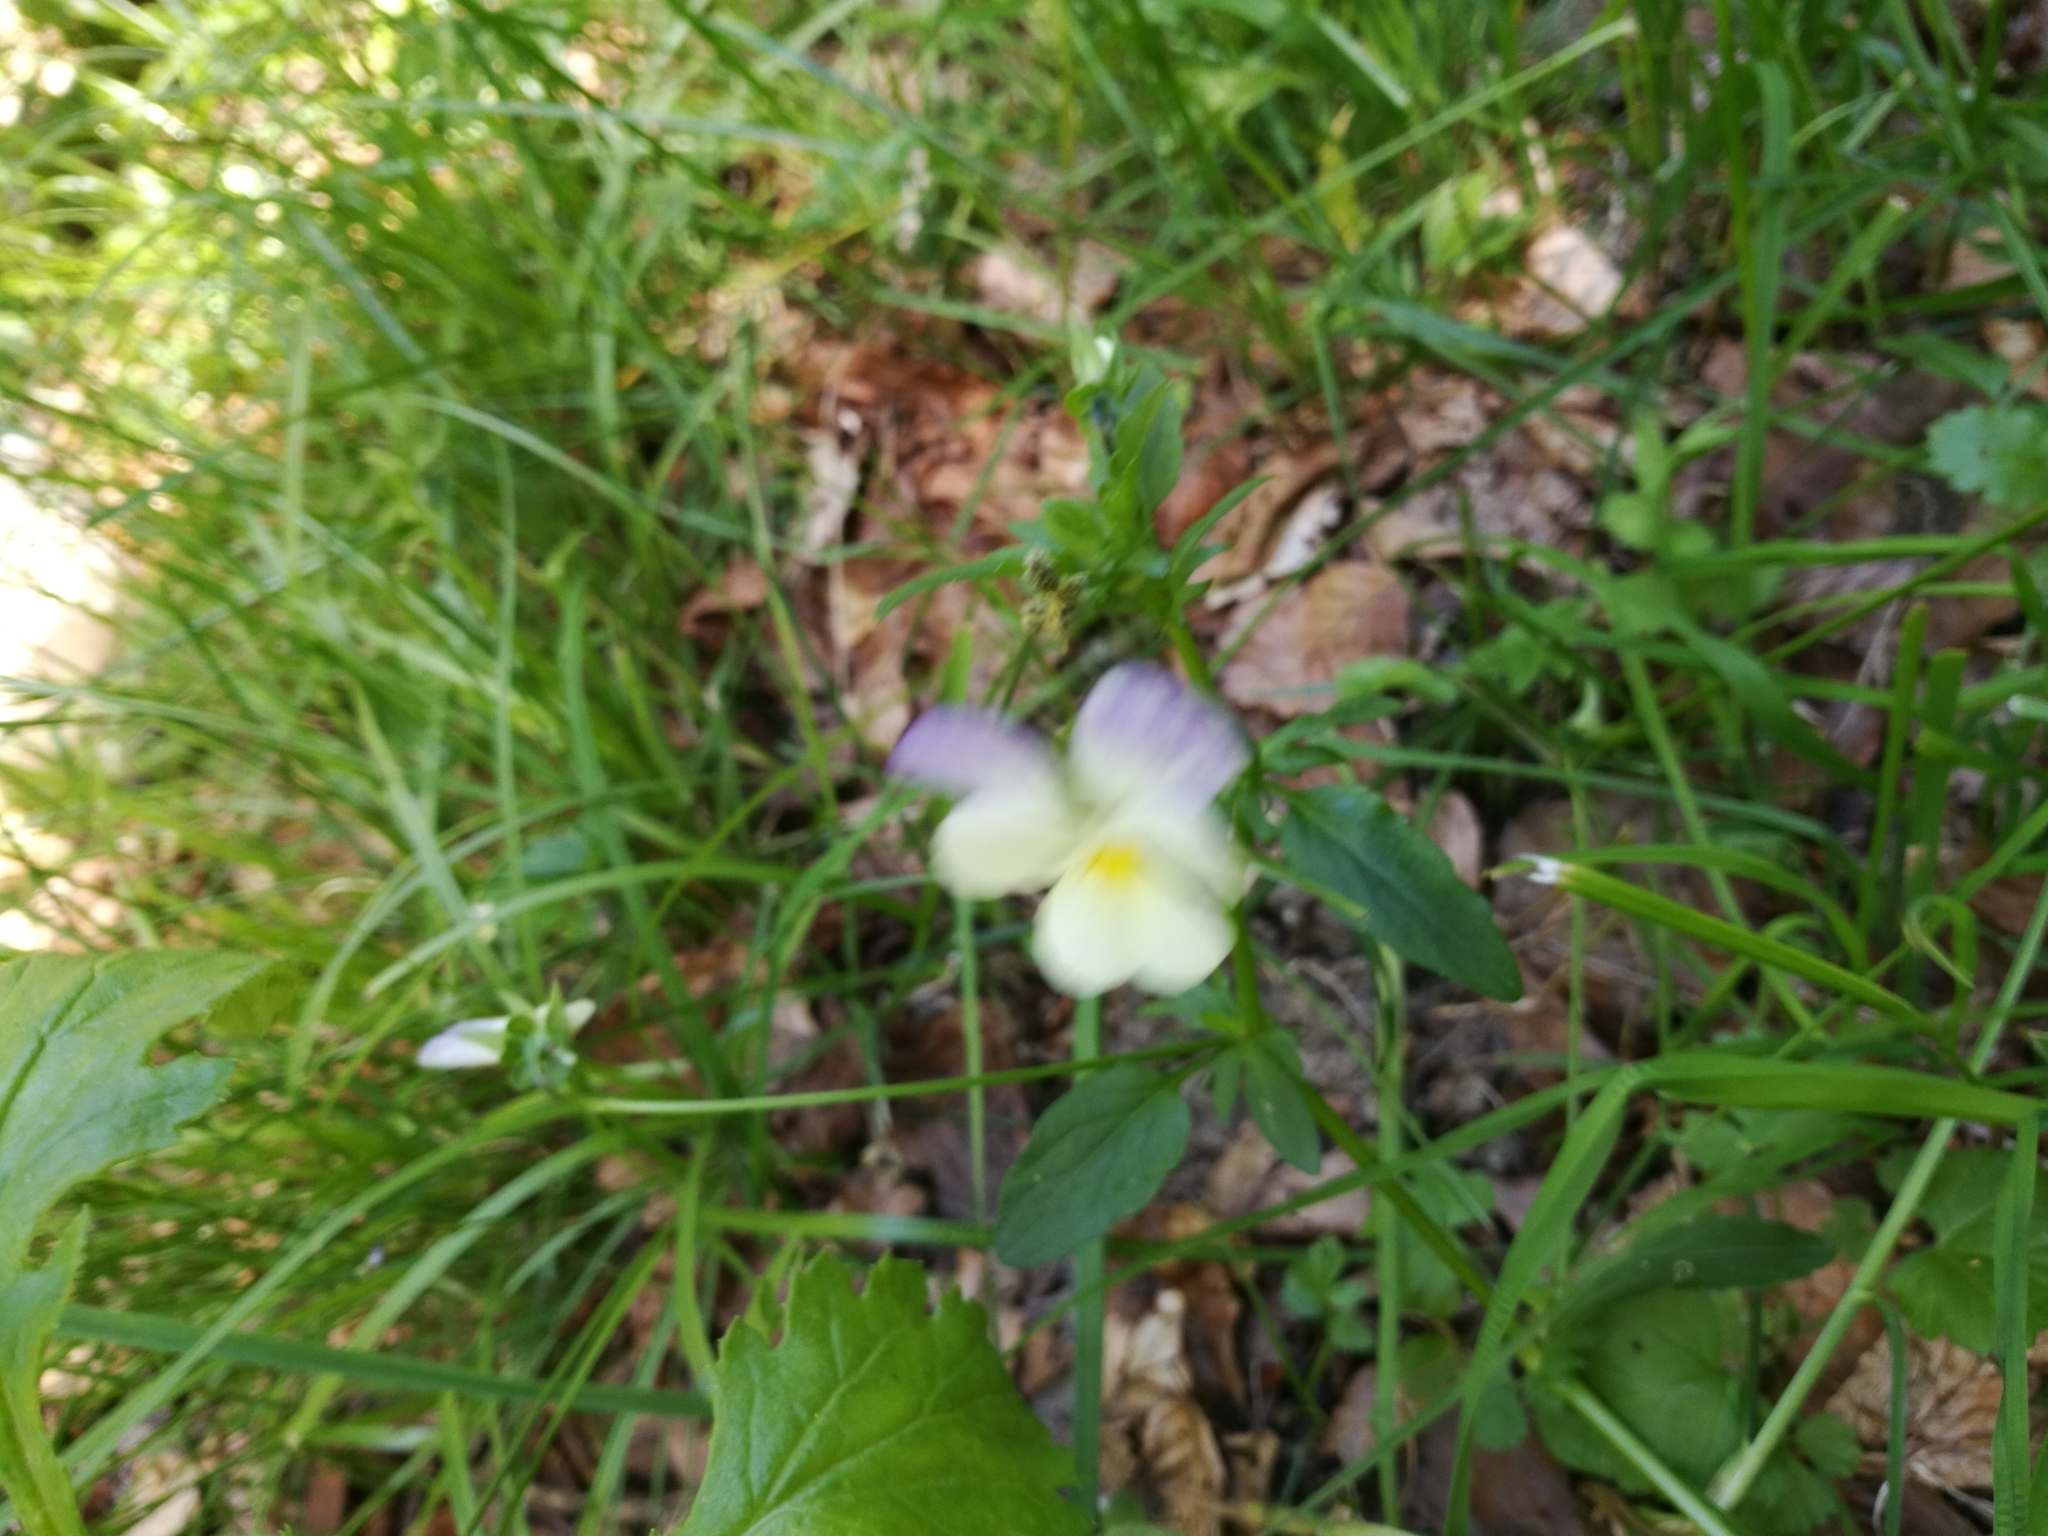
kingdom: Plantae
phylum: Tracheophyta
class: Magnoliopsida
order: Malpighiales
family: Violaceae
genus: Viola
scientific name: Viola tricolor
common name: Pansy
